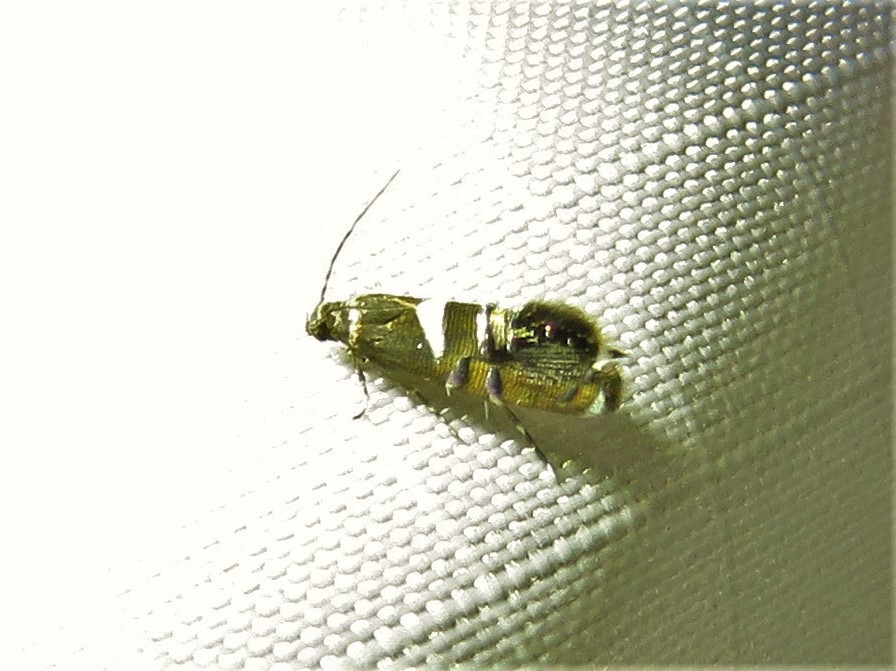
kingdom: Animalia
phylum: Arthropoda
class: Insecta
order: Lepidoptera
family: Glyphipterigidae
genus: Glyphipterix
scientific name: Glyphipterix circumscriptella
